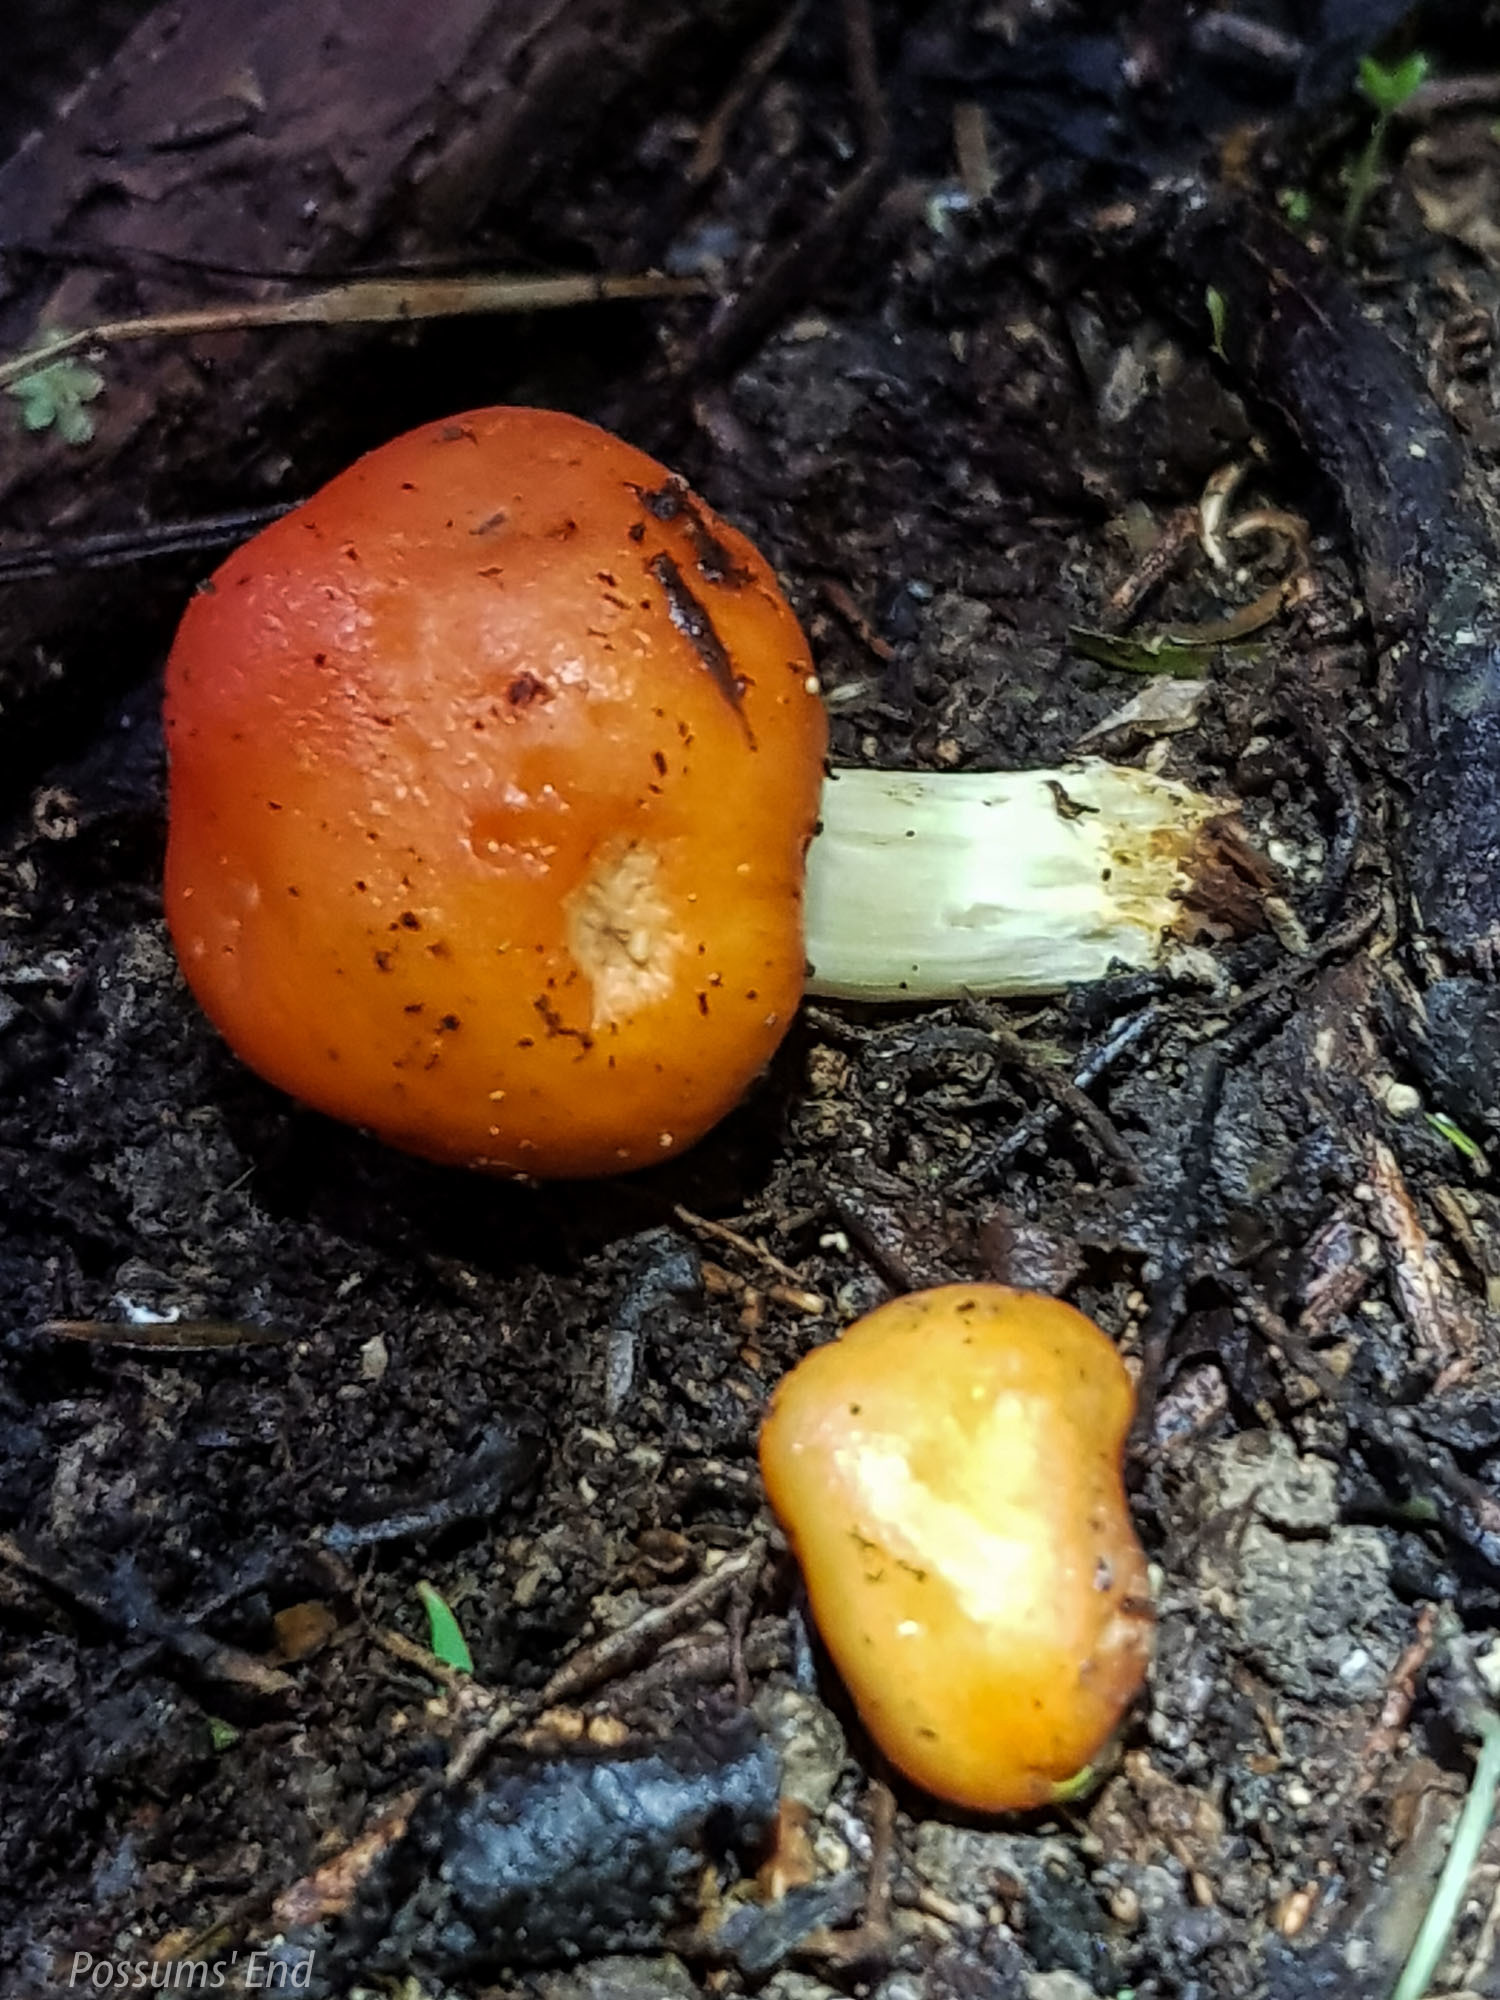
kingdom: Fungi
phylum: Basidiomycota
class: Agaricomycetes
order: Agaricales
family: Strophariaceae
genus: Leratiomyces
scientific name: Leratiomyces erythrocephalus
